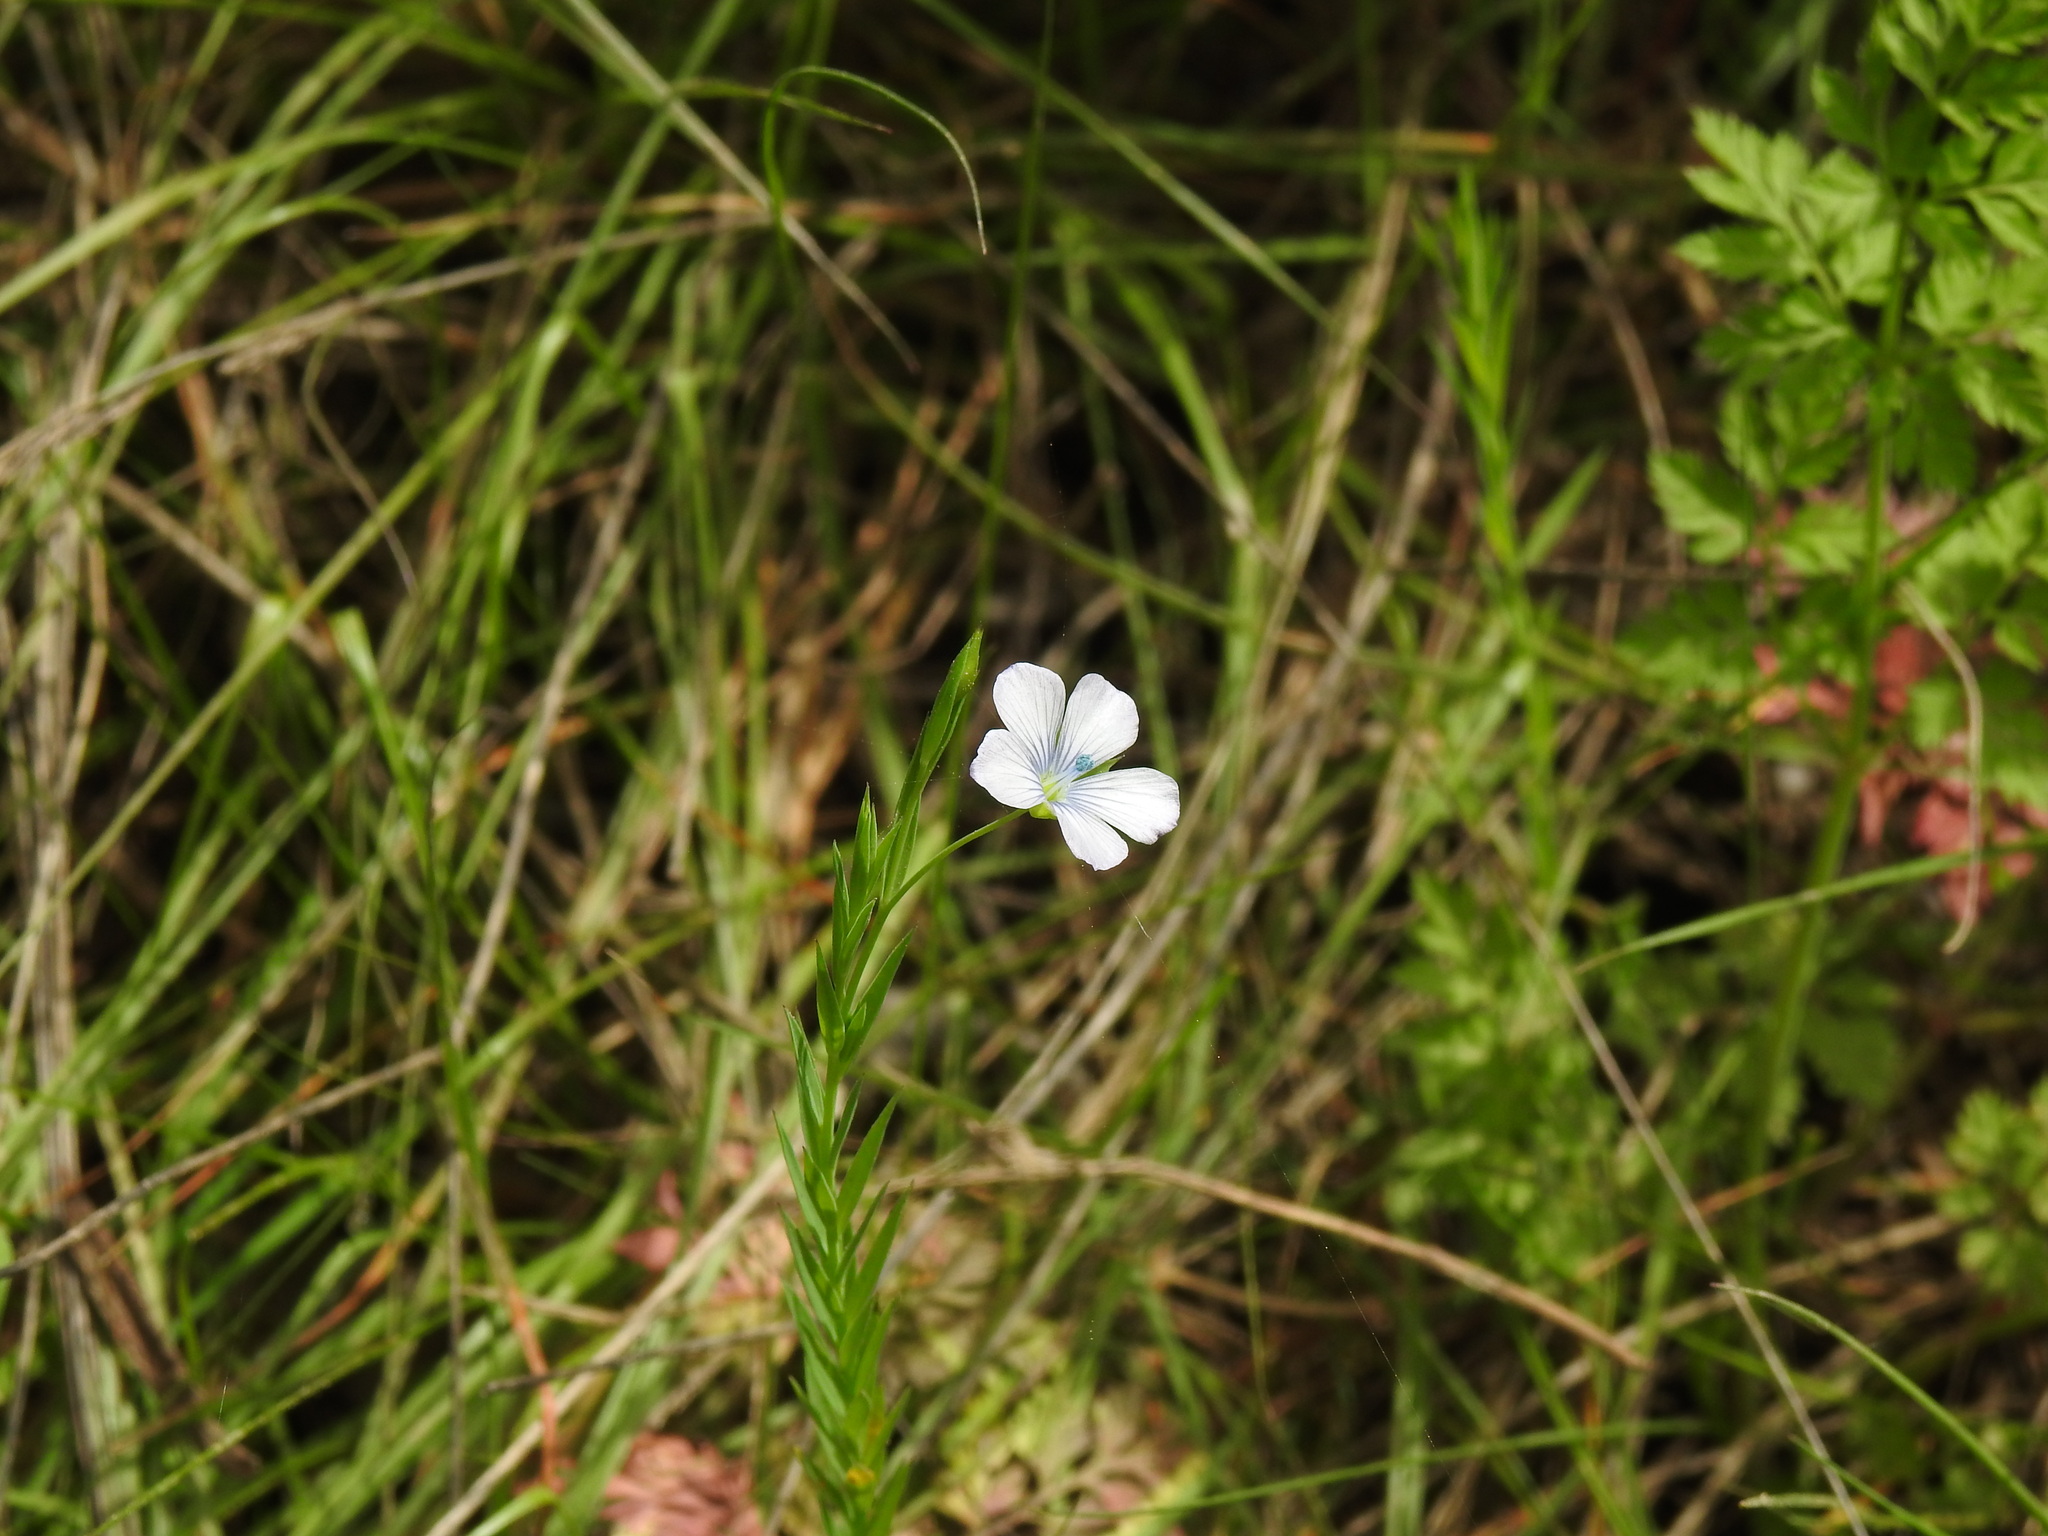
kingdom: Plantae
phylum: Tracheophyta
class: Magnoliopsida
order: Malpighiales
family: Linaceae
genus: Linum
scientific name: Linum bienne
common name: Pale flax
